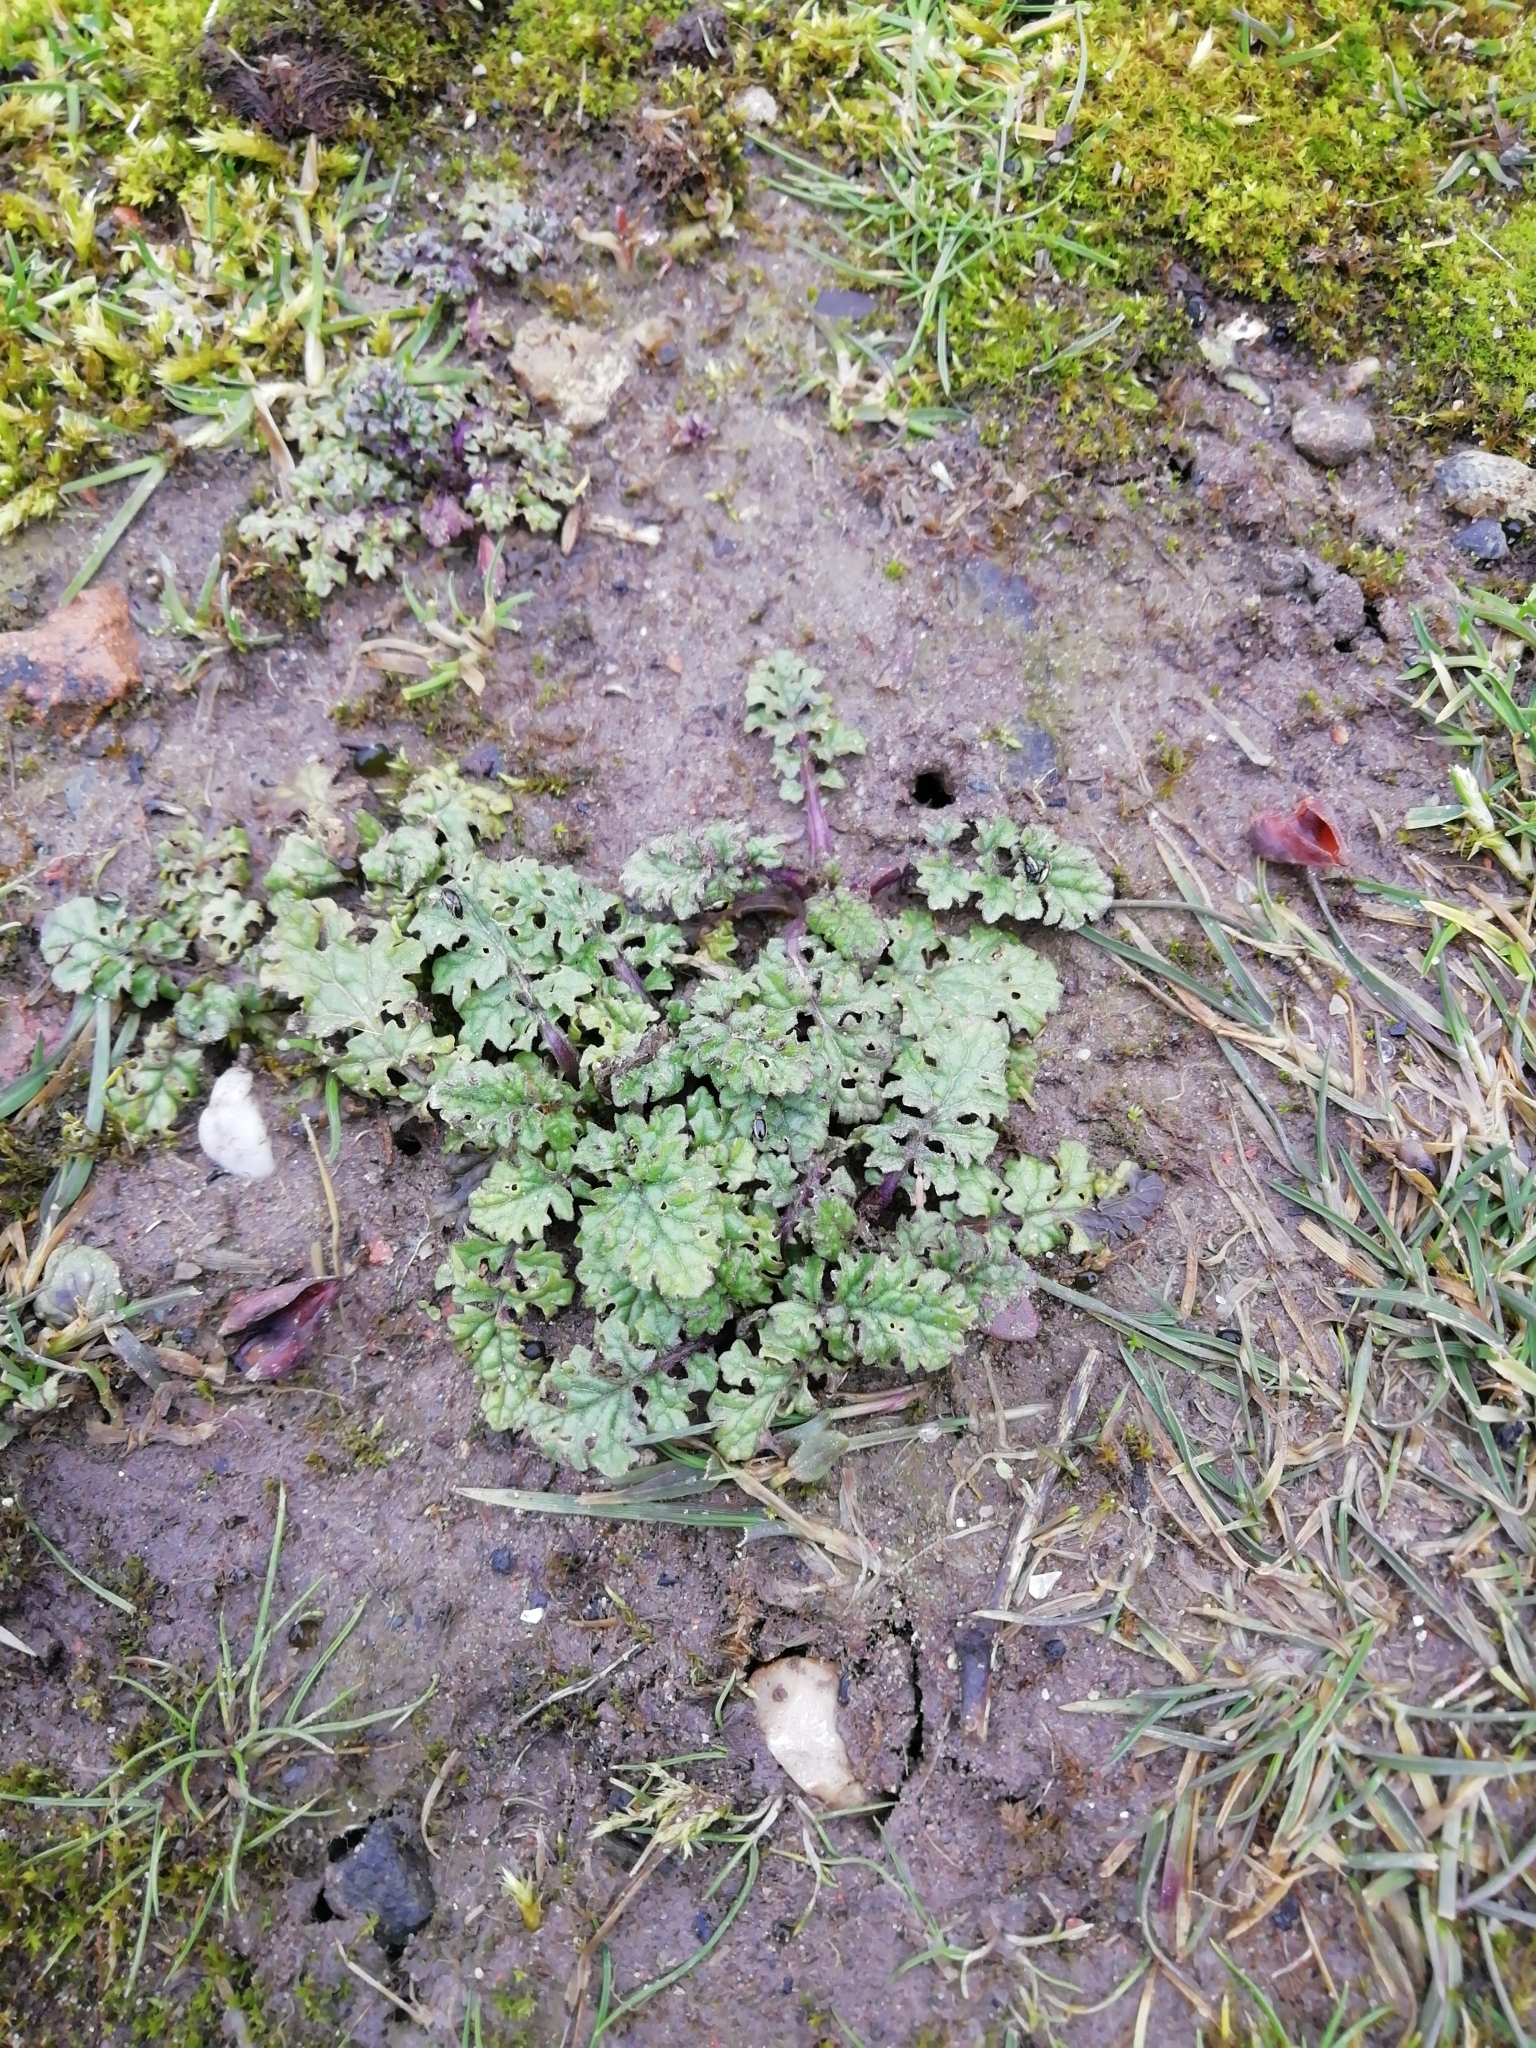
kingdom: Plantae
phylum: Tracheophyta
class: Magnoliopsida
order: Asterales
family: Asteraceae
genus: Jacobaea
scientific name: Jacobaea vulgaris
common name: Stinking willie
